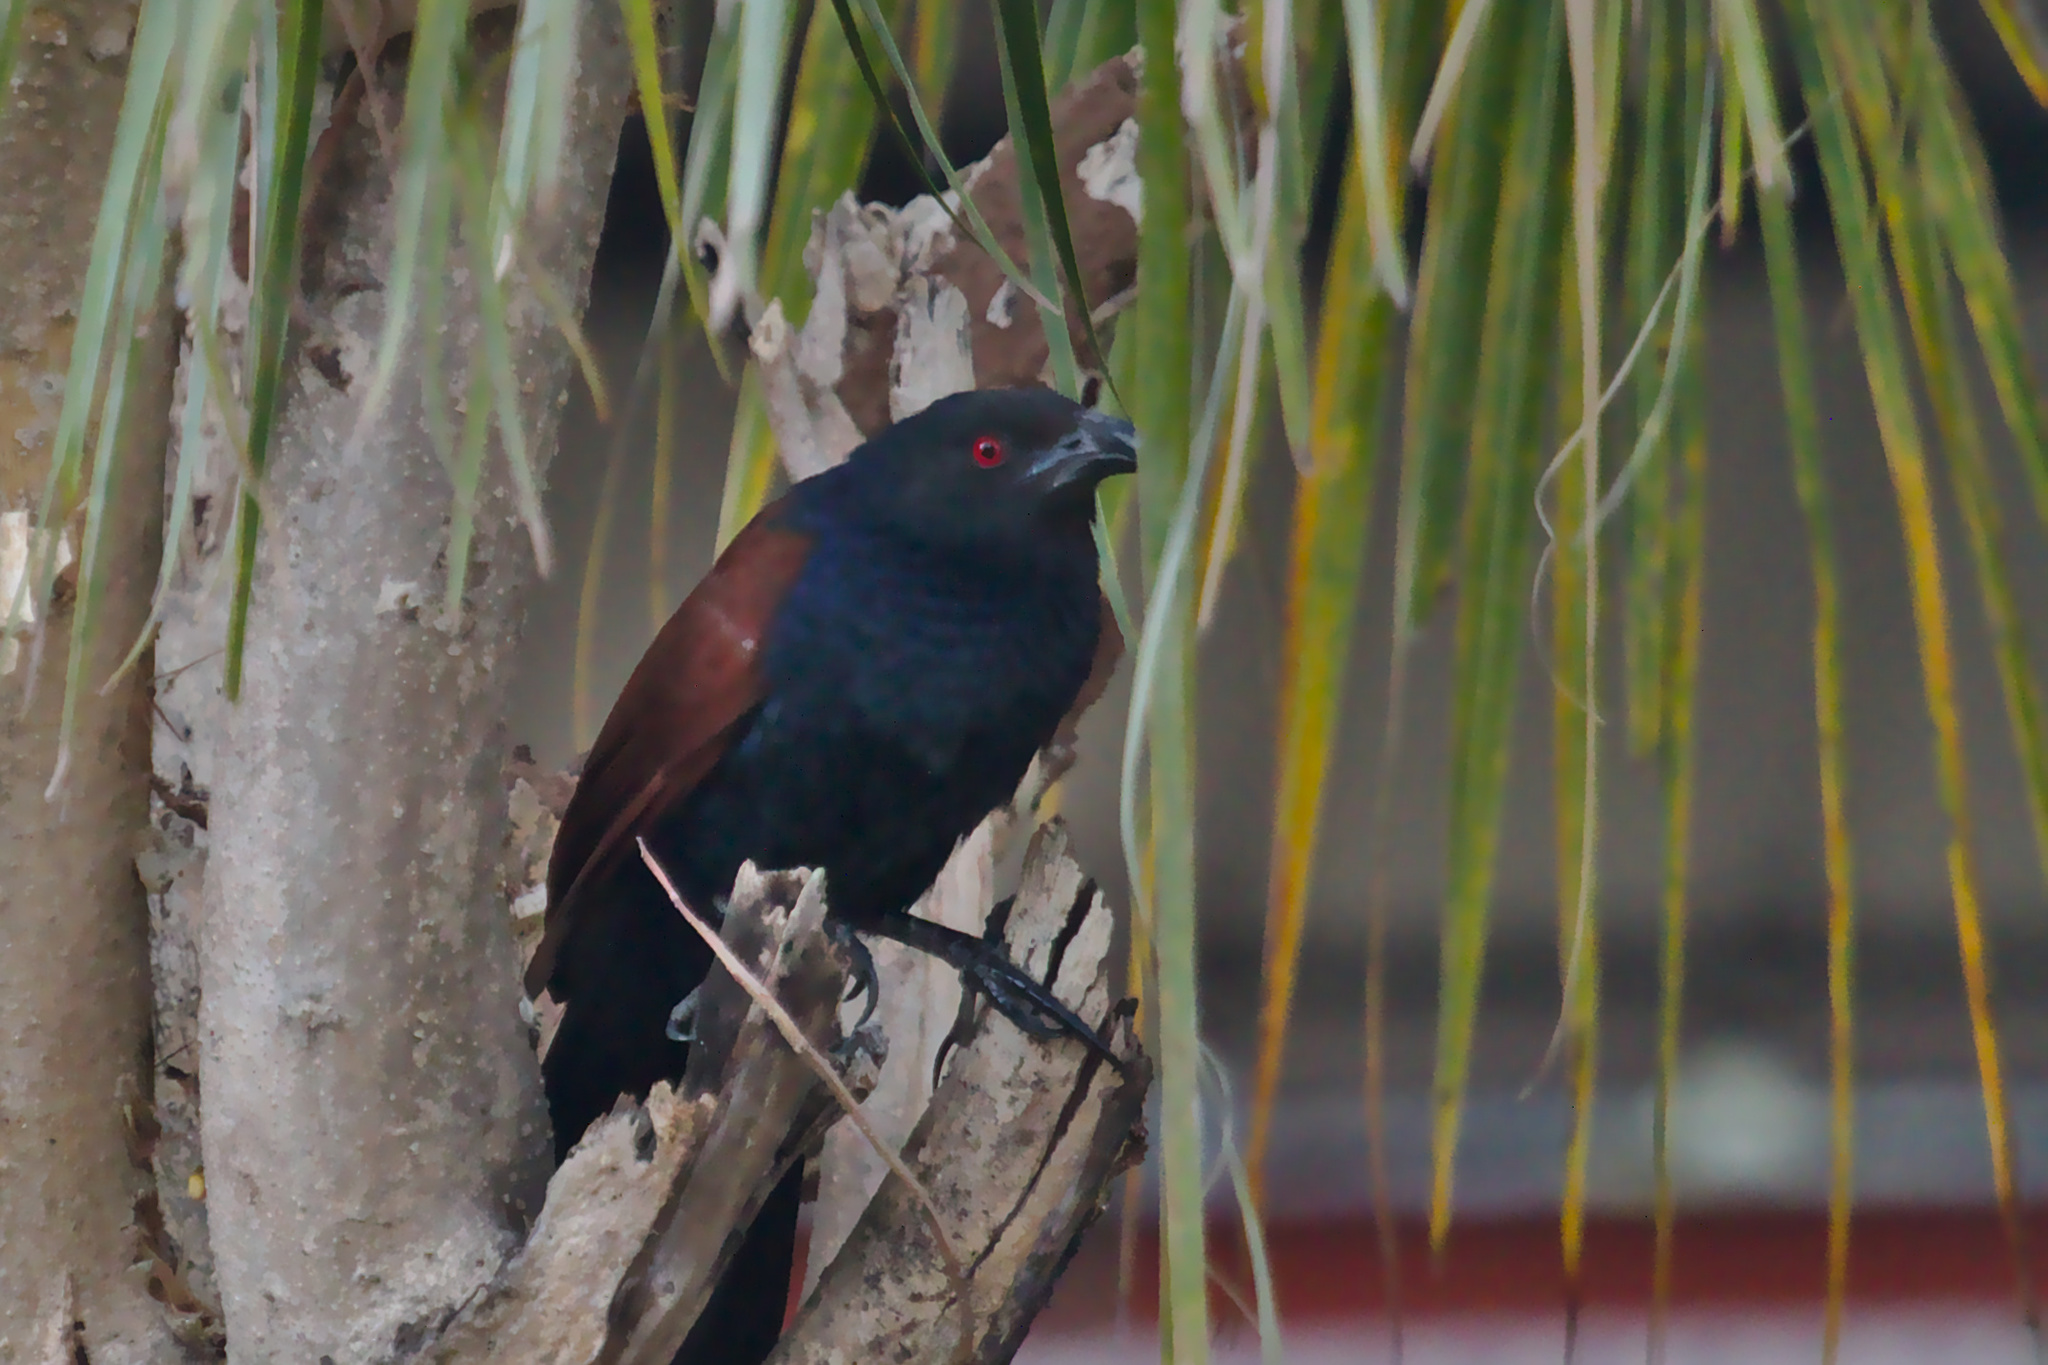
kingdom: Animalia
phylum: Chordata
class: Aves
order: Cuculiformes
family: Cuculidae
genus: Centropus
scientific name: Centropus sinensis
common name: Greater coucal
